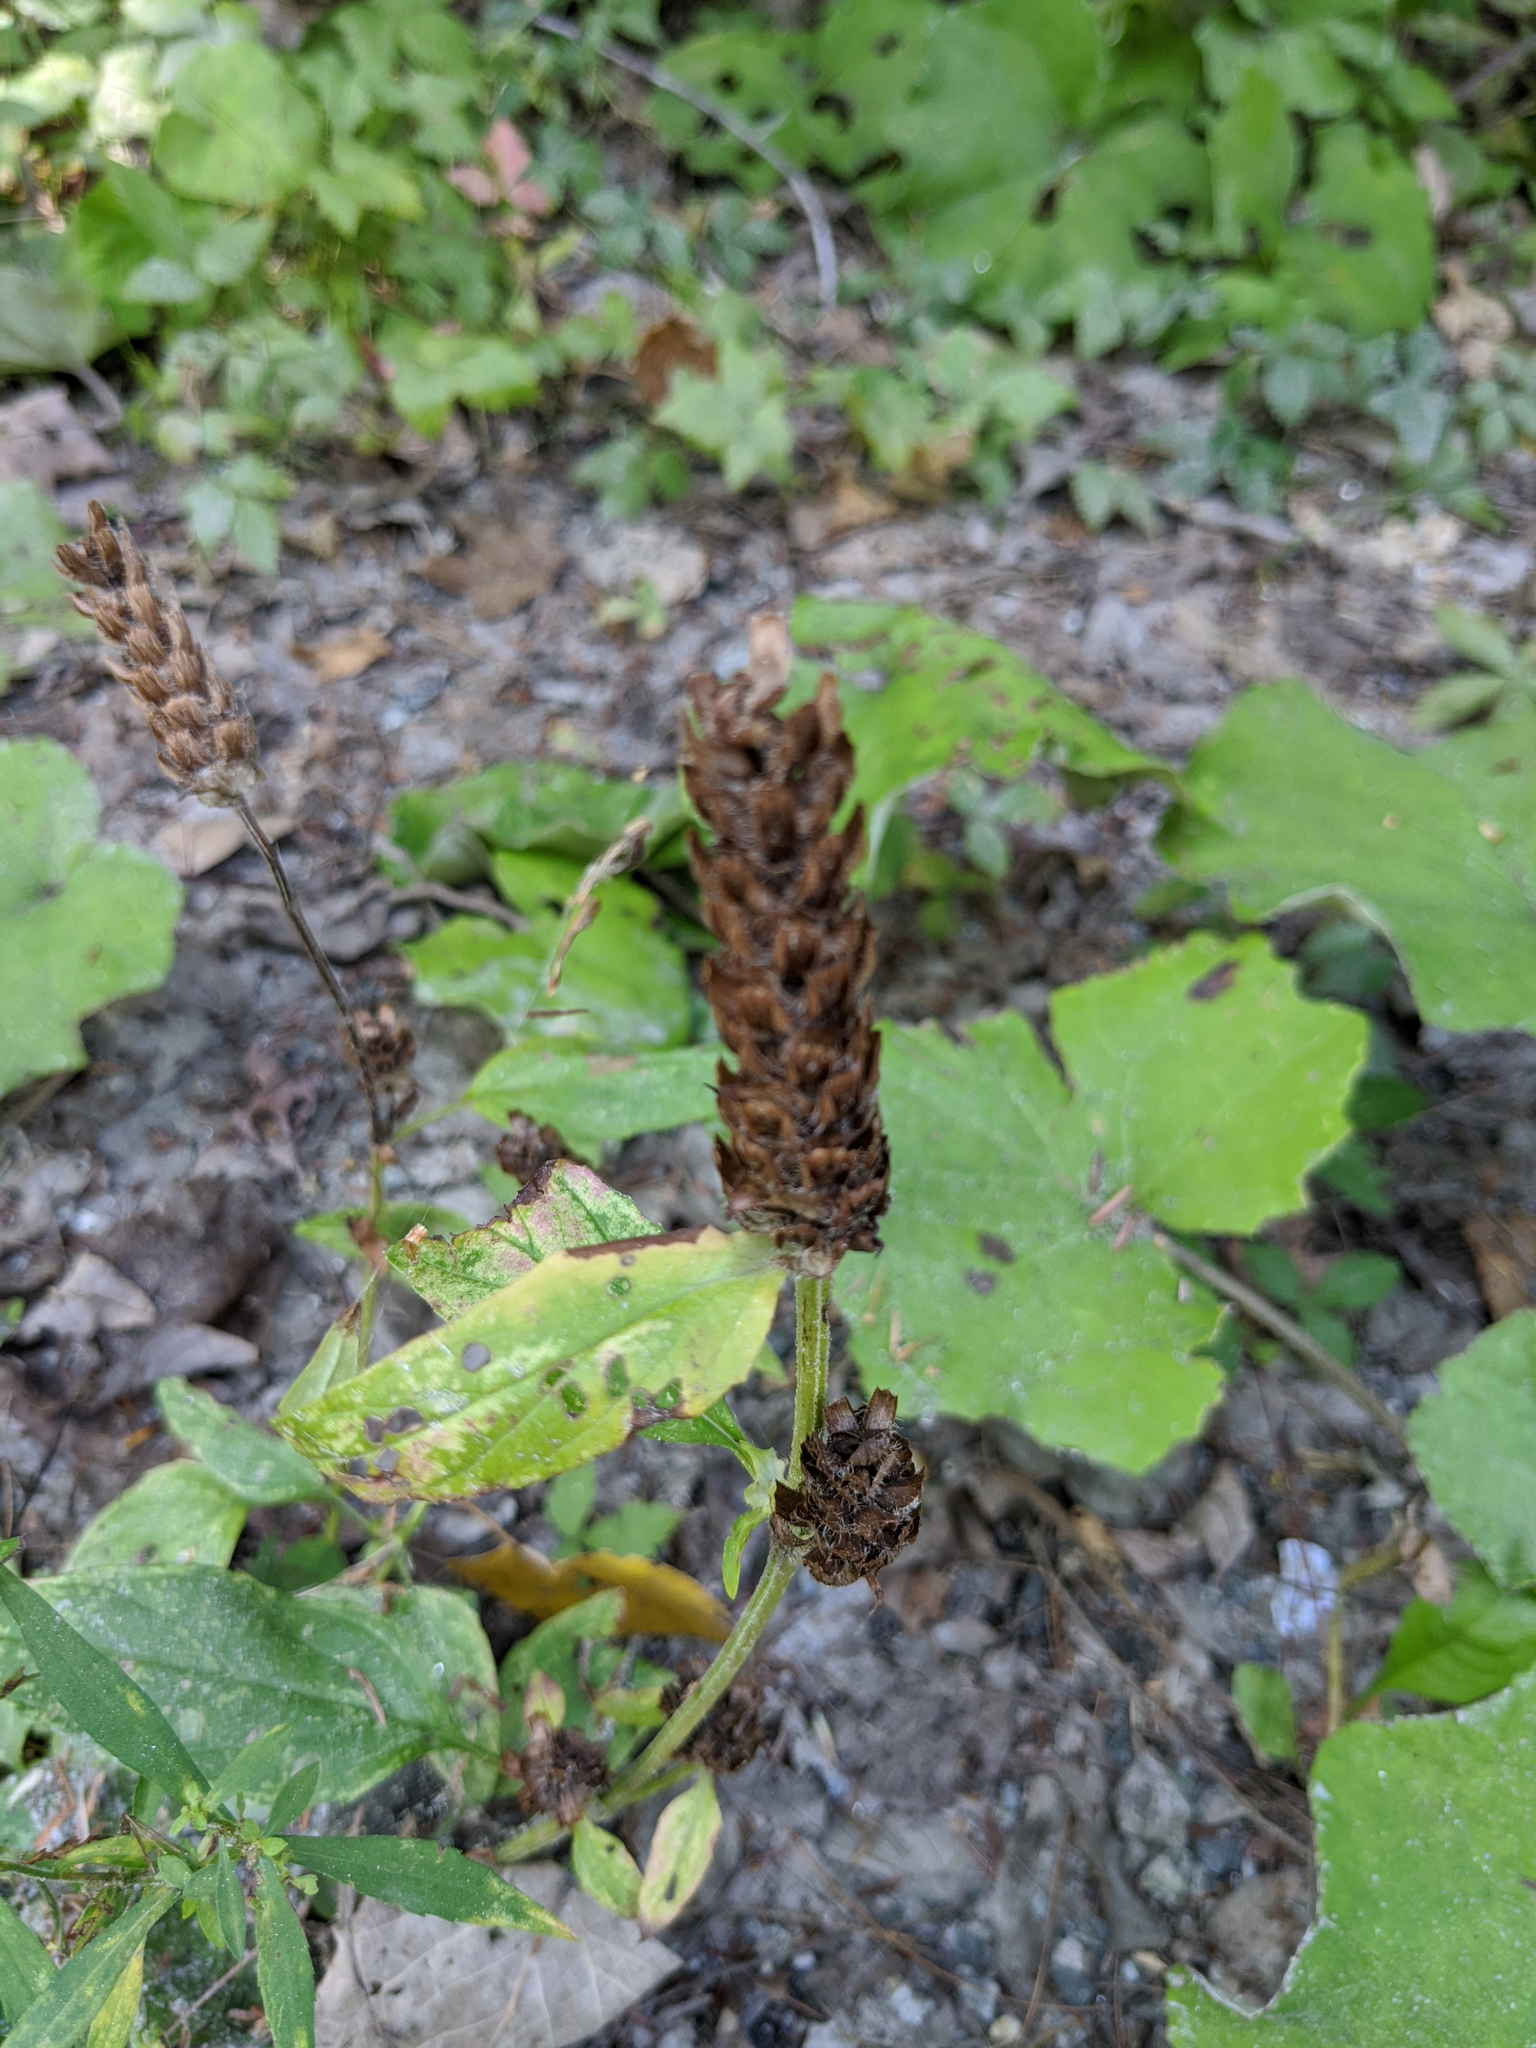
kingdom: Plantae
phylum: Tracheophyta
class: Magnoliopsida
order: Lamiales
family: Lamiaceae
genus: Prunella
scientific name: Prunella vulgaris
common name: Heal-all
